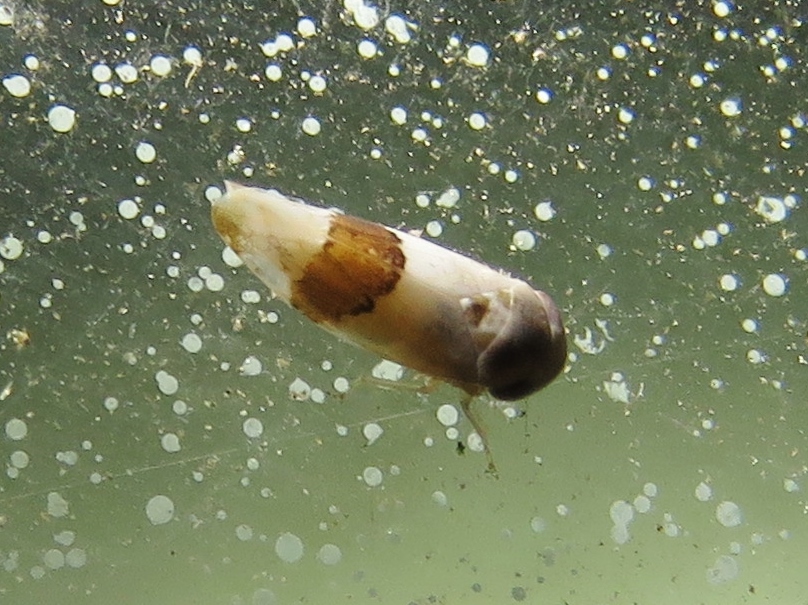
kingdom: Animalia
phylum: Arthropoda
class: Insecta
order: Hemiptera
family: Cicadellidae
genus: Norvellina
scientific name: Norvellina seminuda
